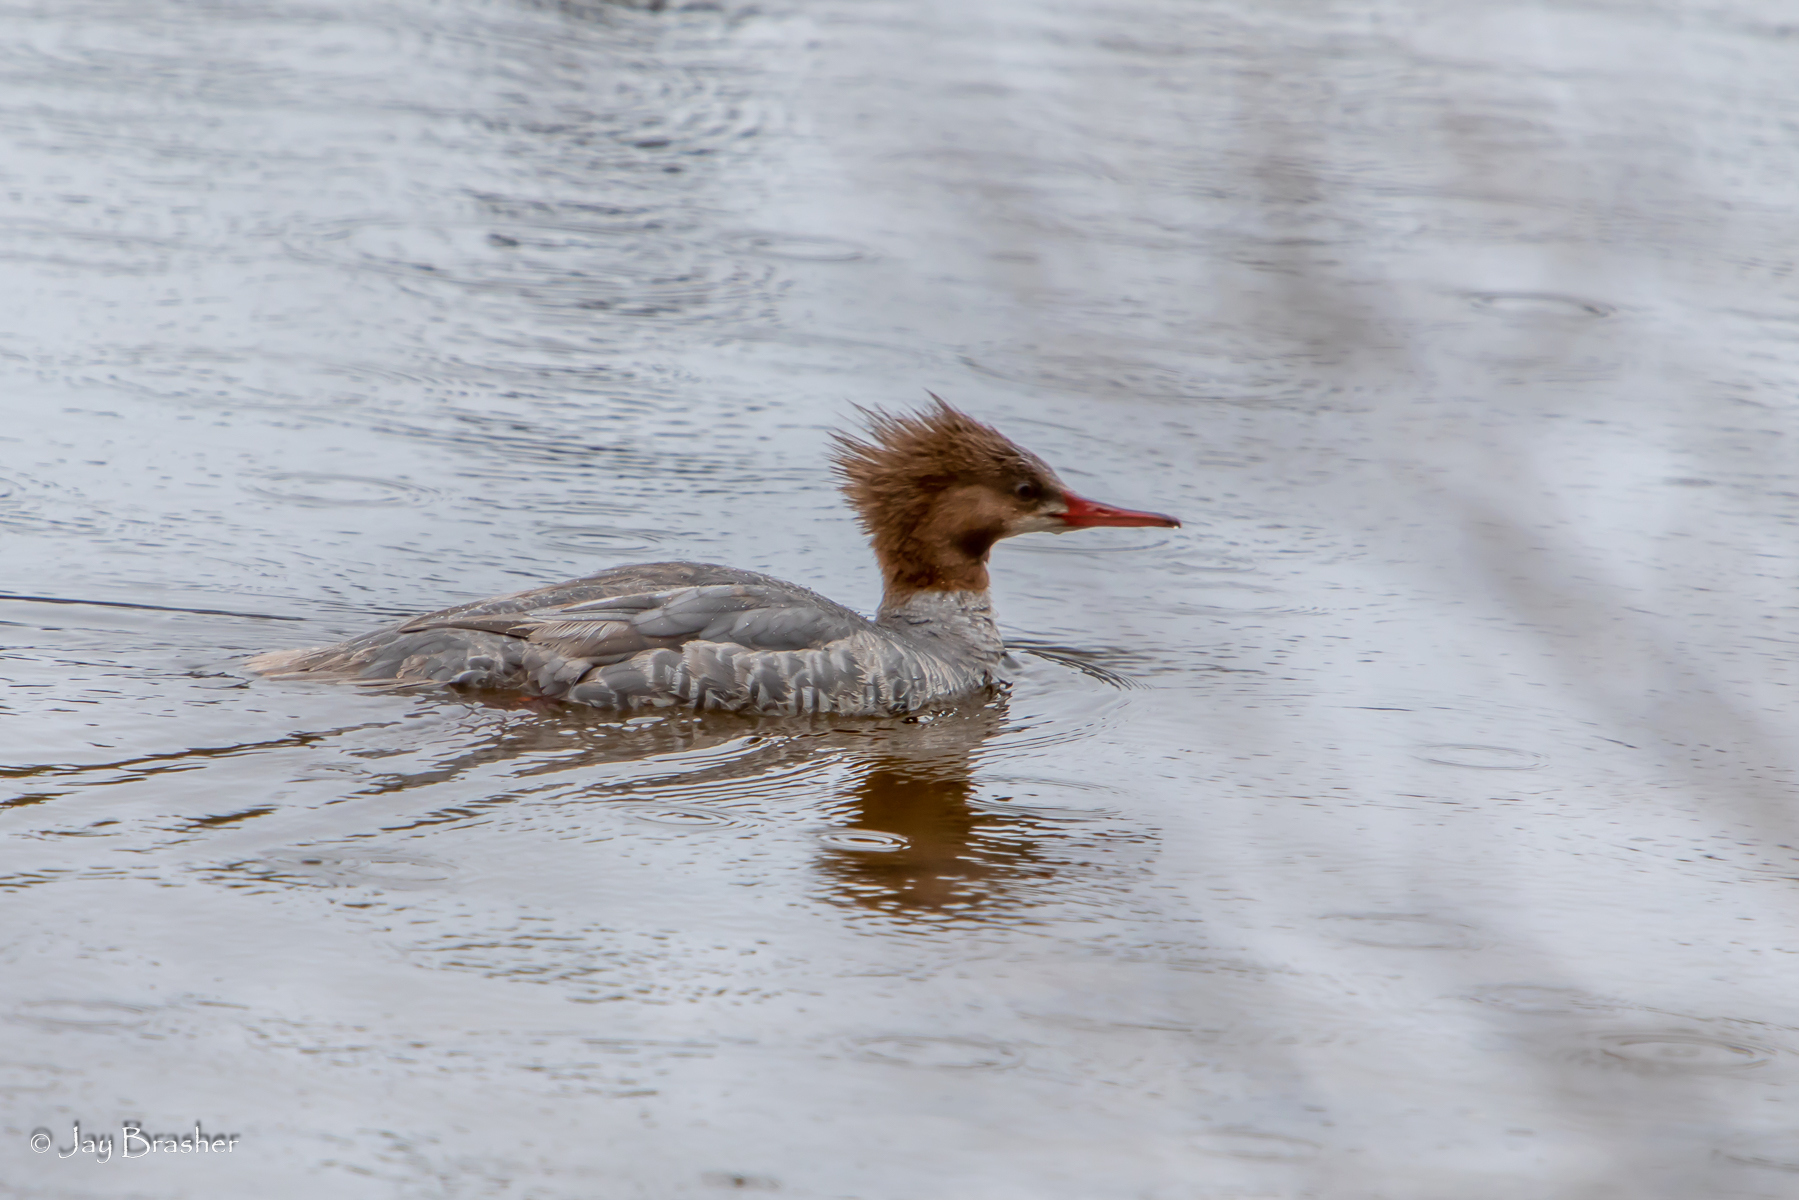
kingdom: Animalia
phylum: Chordata
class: Aves
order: Anseriformes
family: Anatidae
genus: Mergus
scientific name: Mergus serrator
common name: Red-breasted merganser
